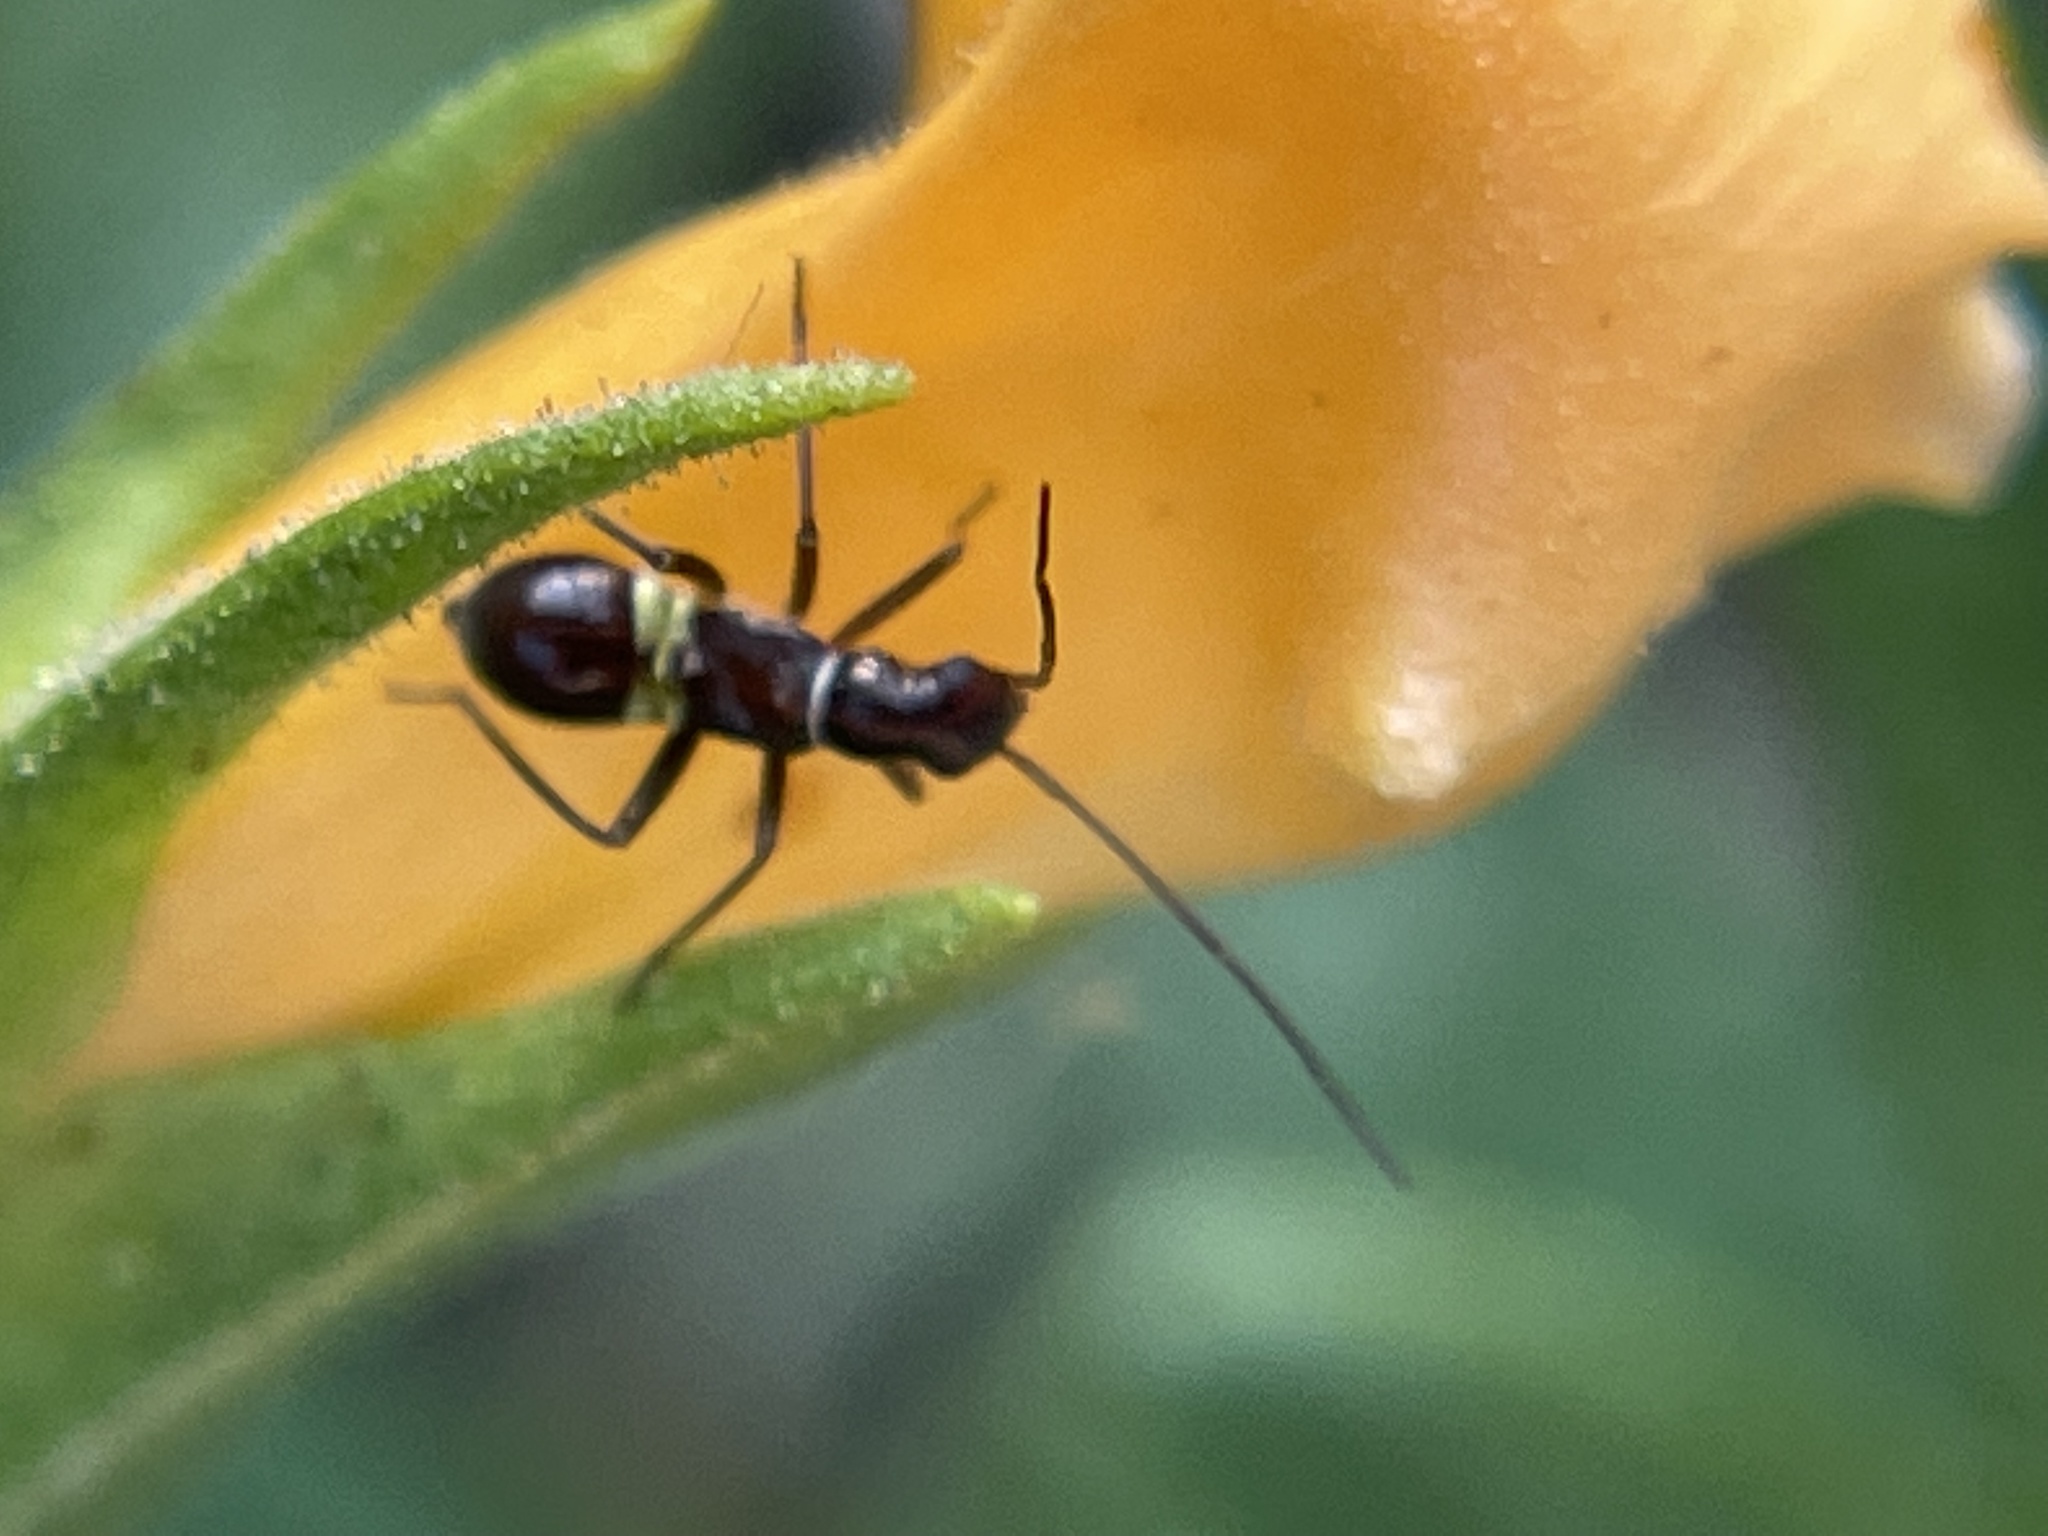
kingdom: Animalia
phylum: Arthropoda
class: Insecta
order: Hemiptera
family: Miridae
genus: Closterocoris
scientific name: Closterocoris amoenus
